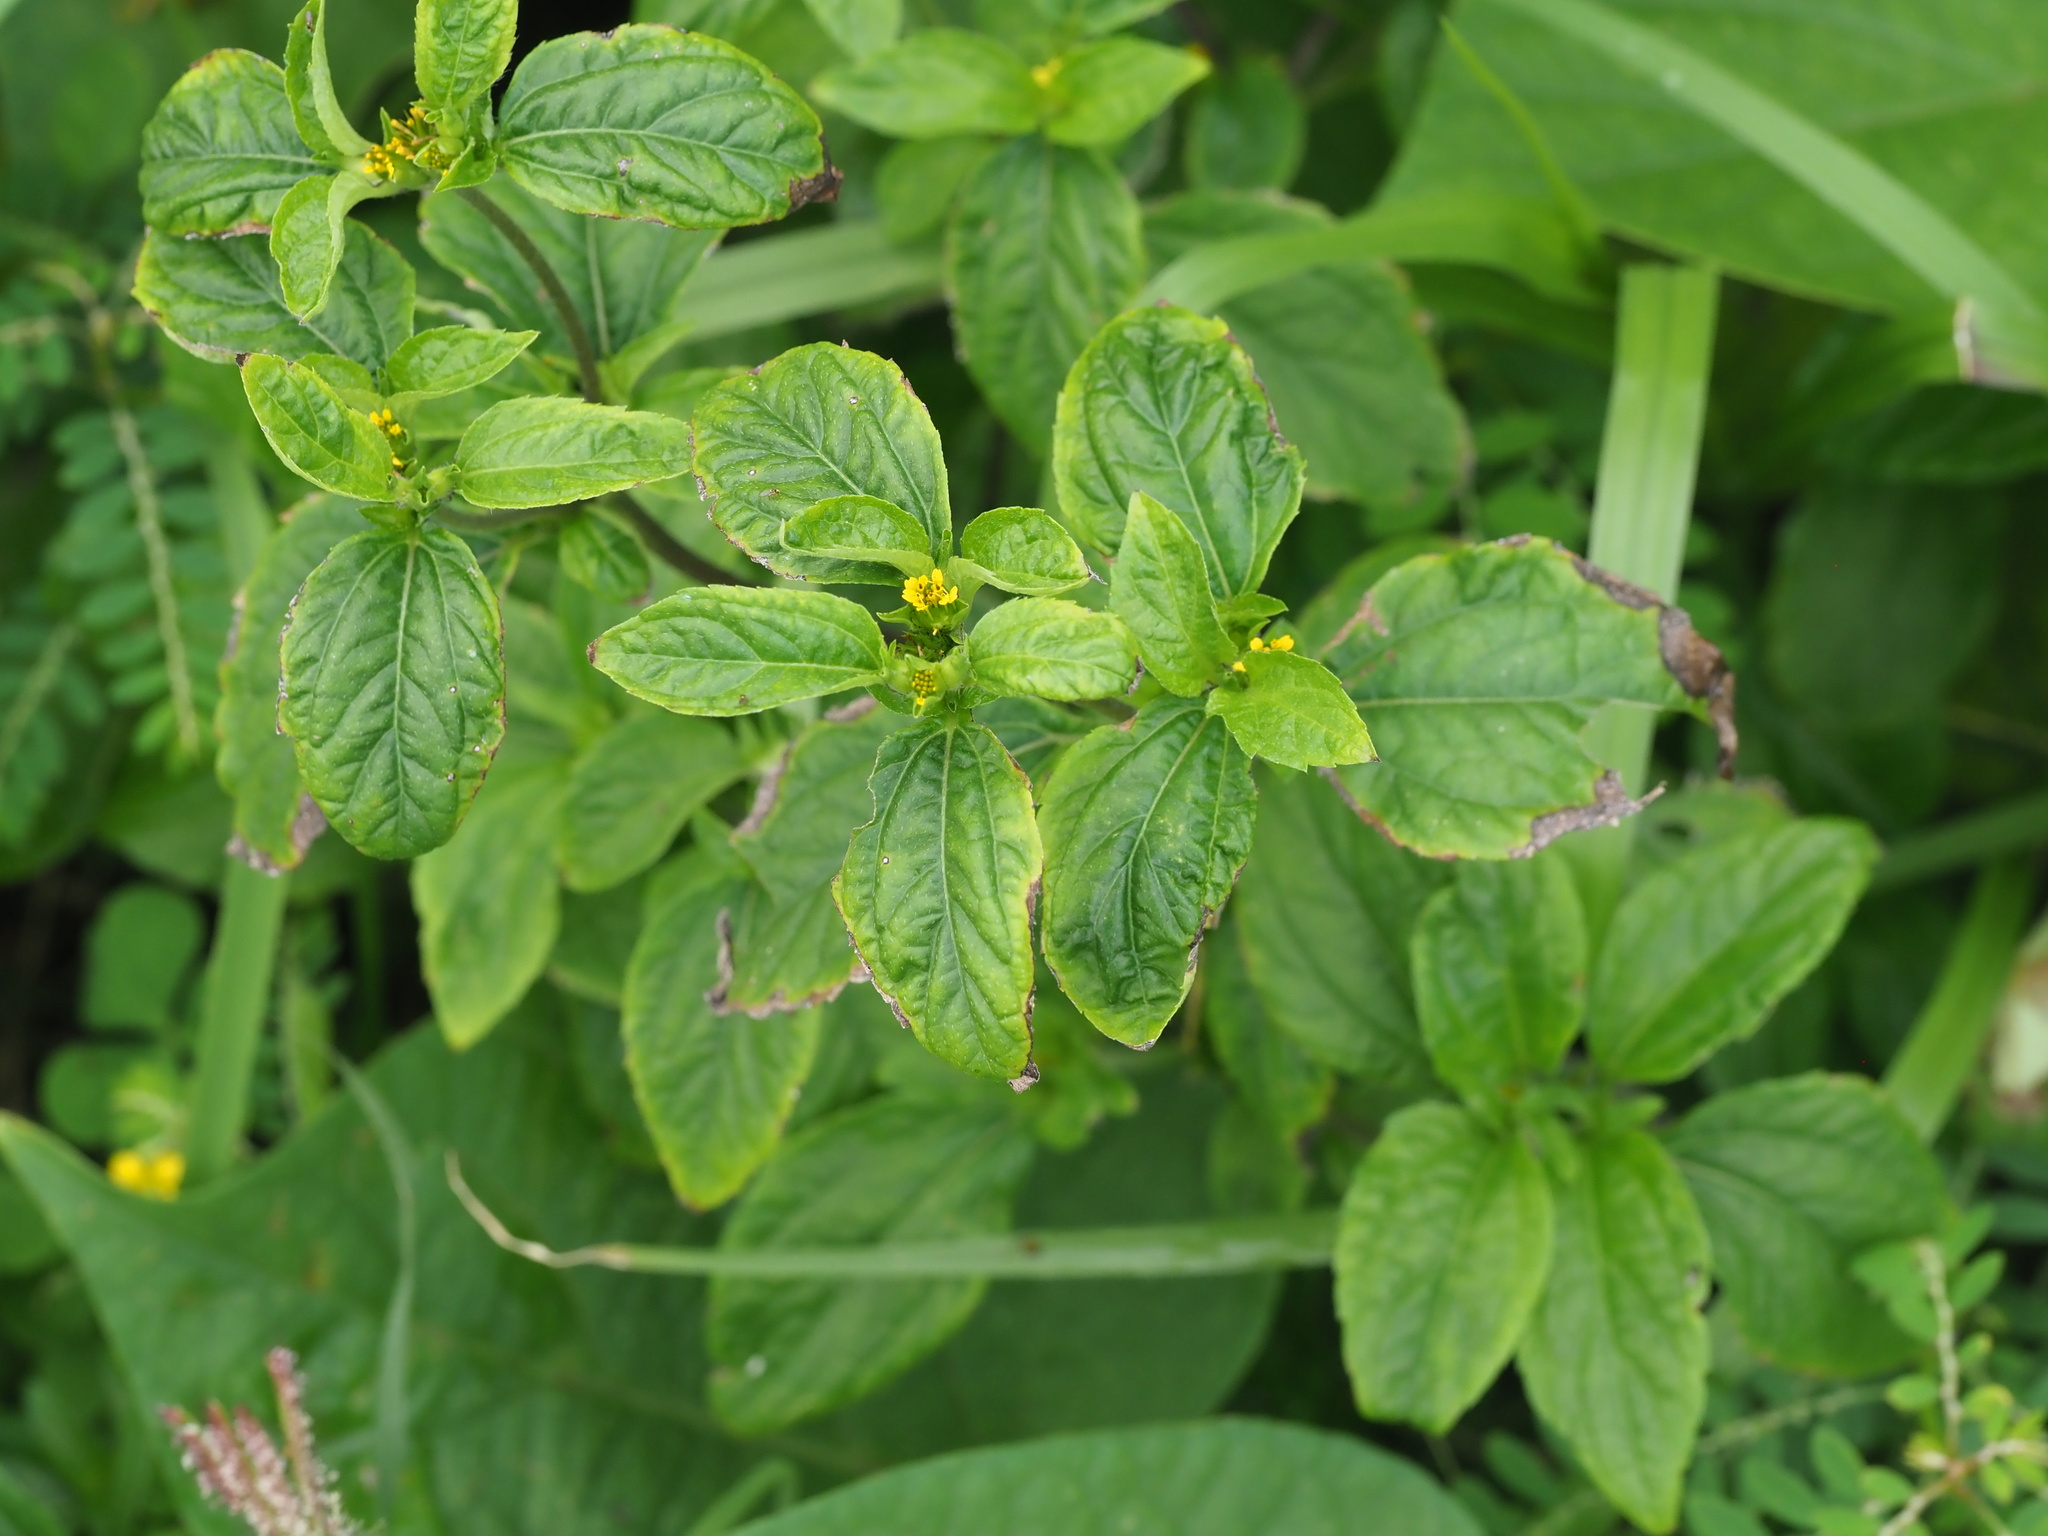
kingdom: Plantae
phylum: Tracheophyta
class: Magnoliopsida
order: Asterales
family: Asteraceae
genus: Synedrella
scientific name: Synedrella nodiflora
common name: Nodeweed
